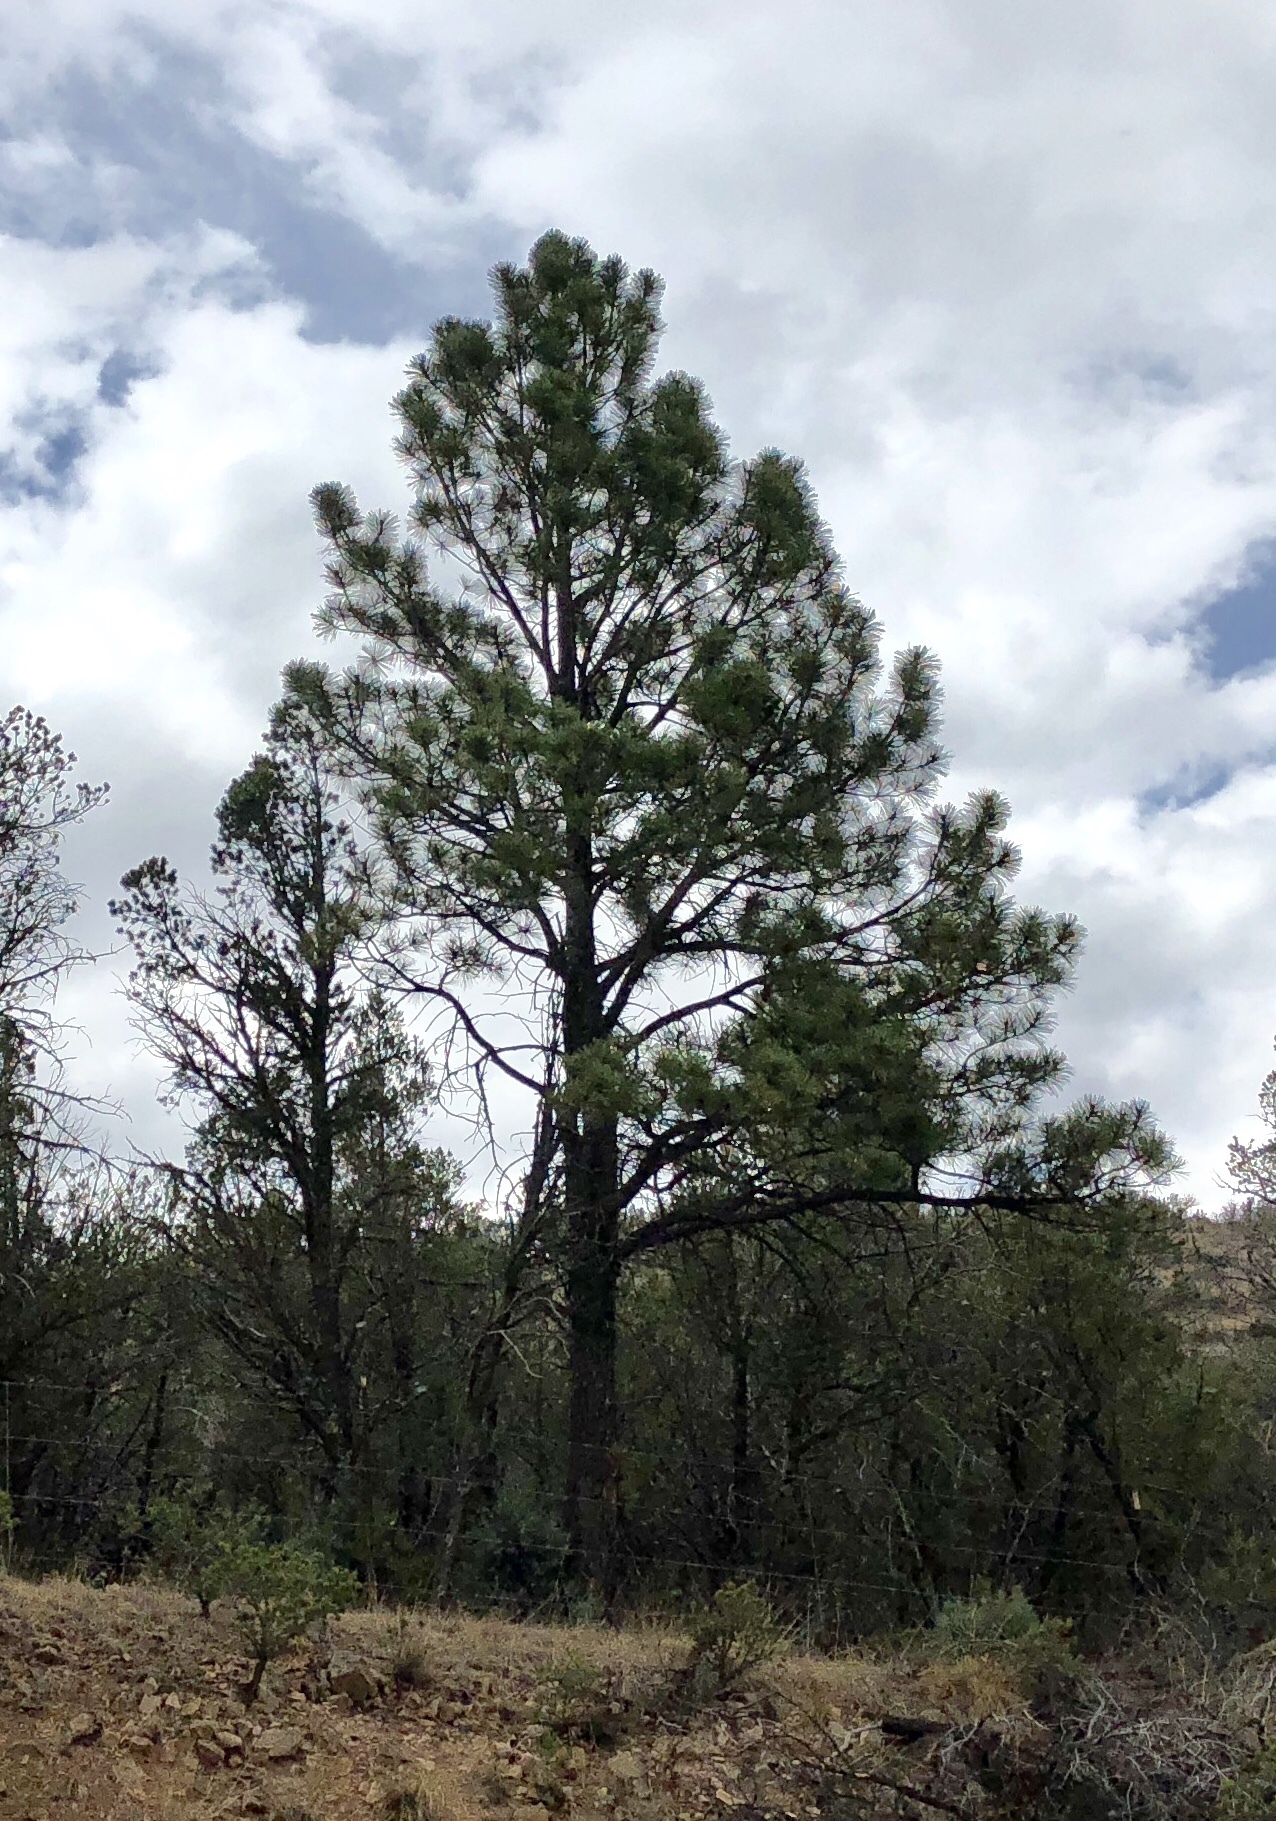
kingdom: Plantae
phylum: Tracheophyta
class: Pinopsida
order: Pinales
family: Pinaceae
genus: Pinus
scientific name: Pinus ponderosa
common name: Western yellow-pine
